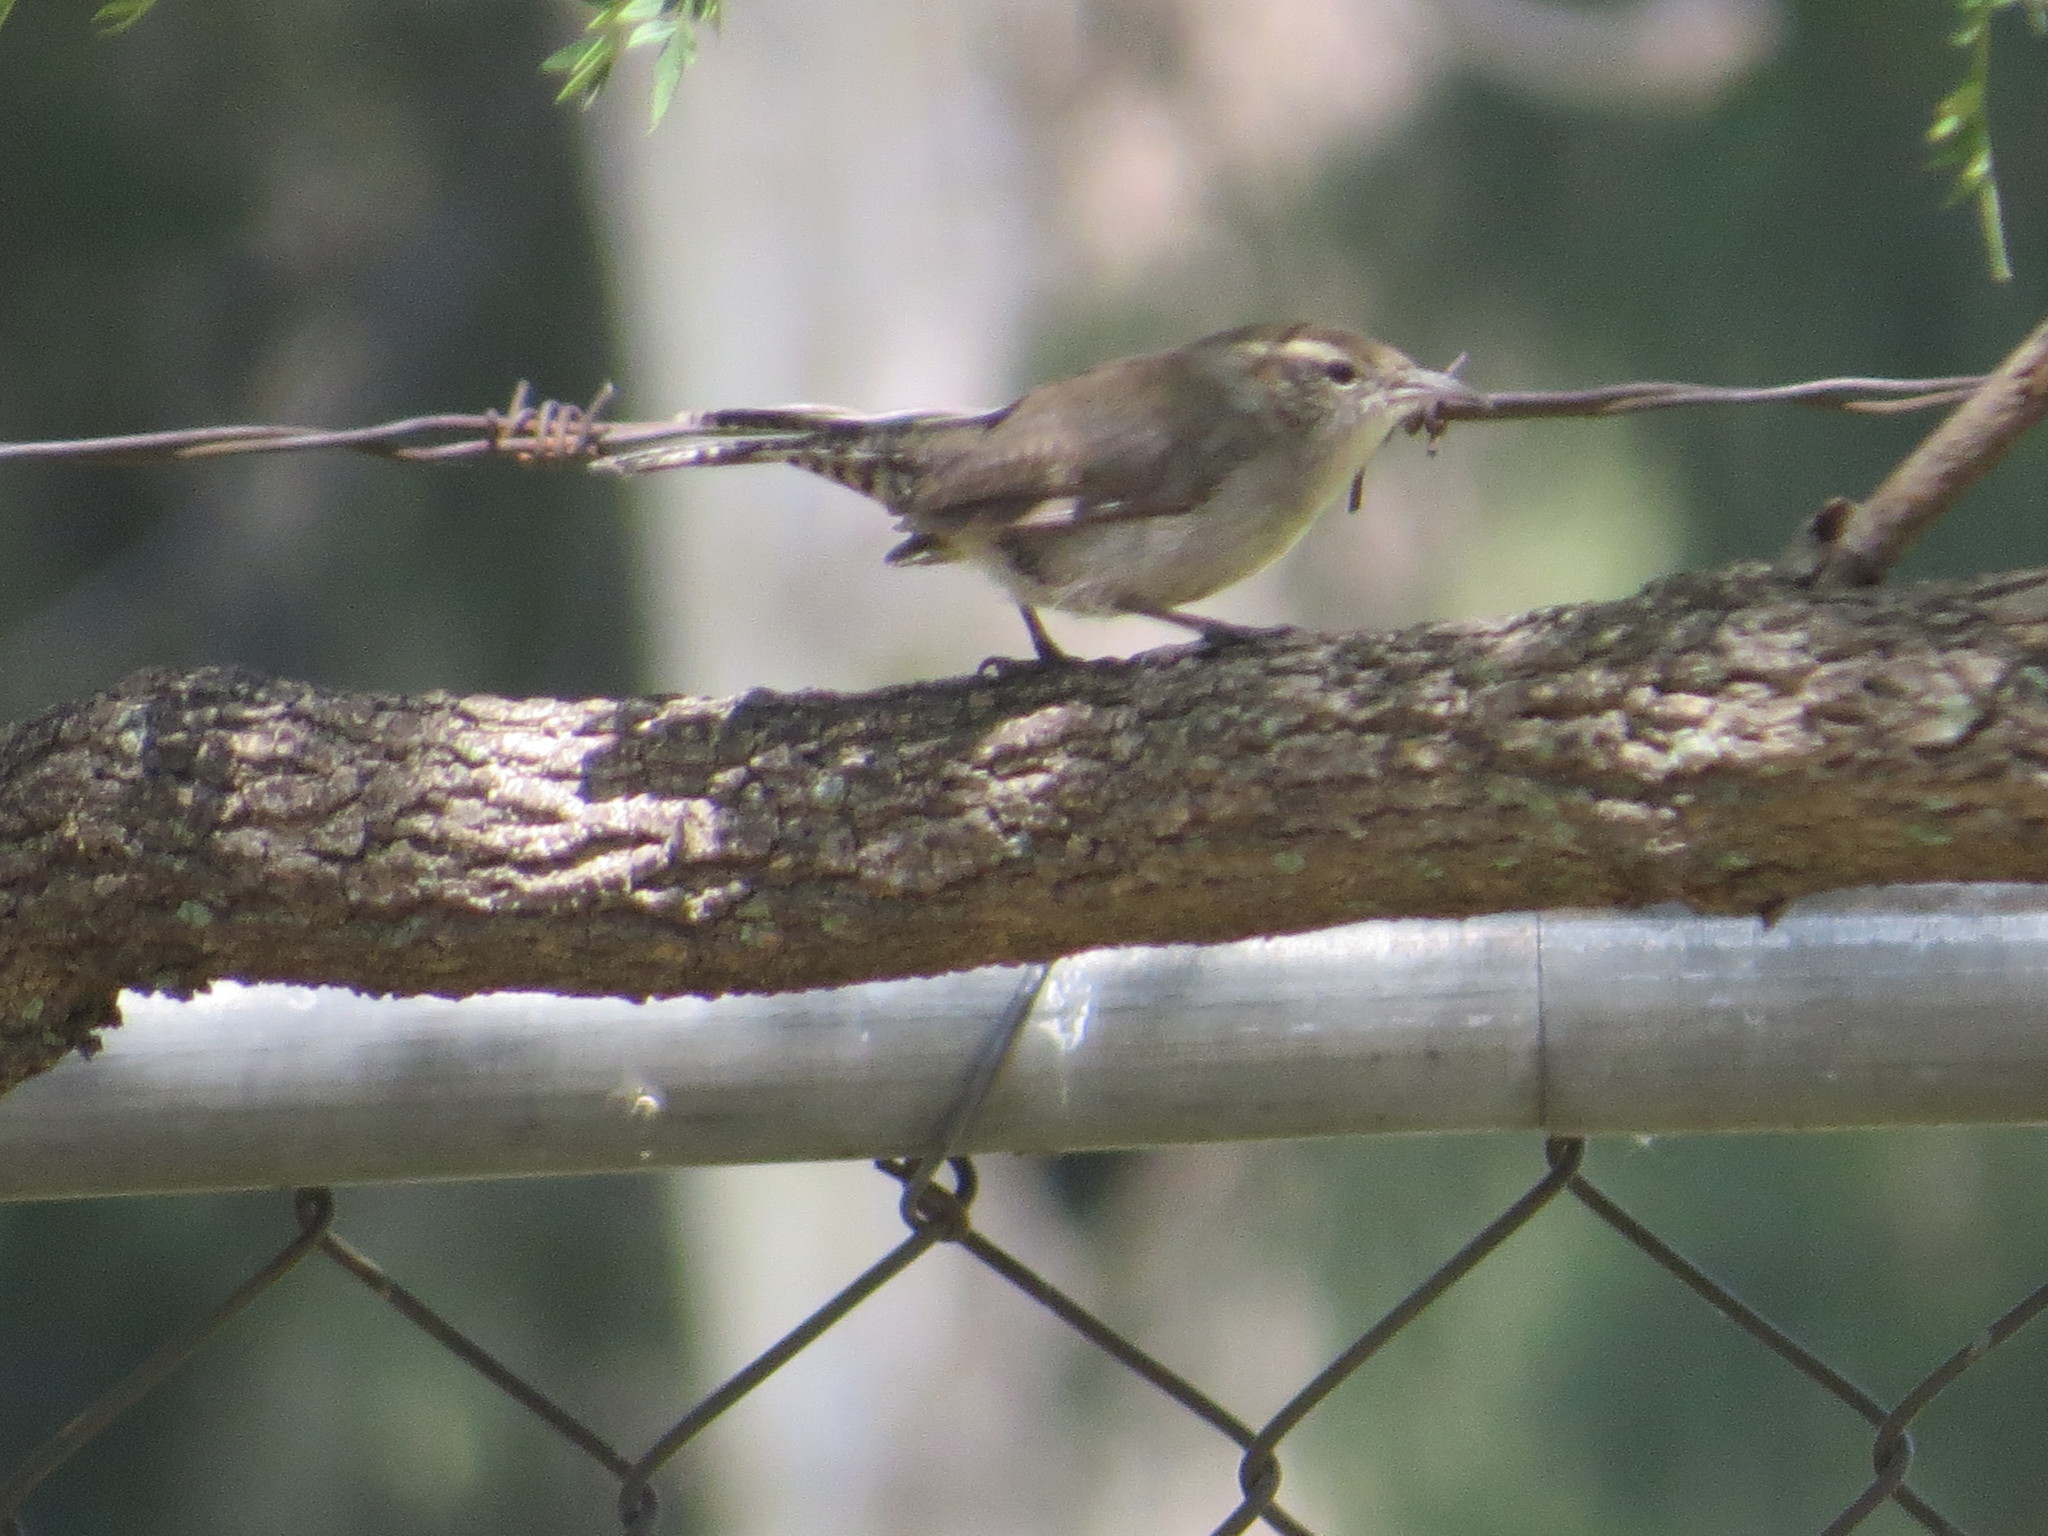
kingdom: Animalia
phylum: Chordata
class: Aves
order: Passeriformes
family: Troglodytidae
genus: Thryomanes
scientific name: Thryomanes bewickii
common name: Bewick's wren
